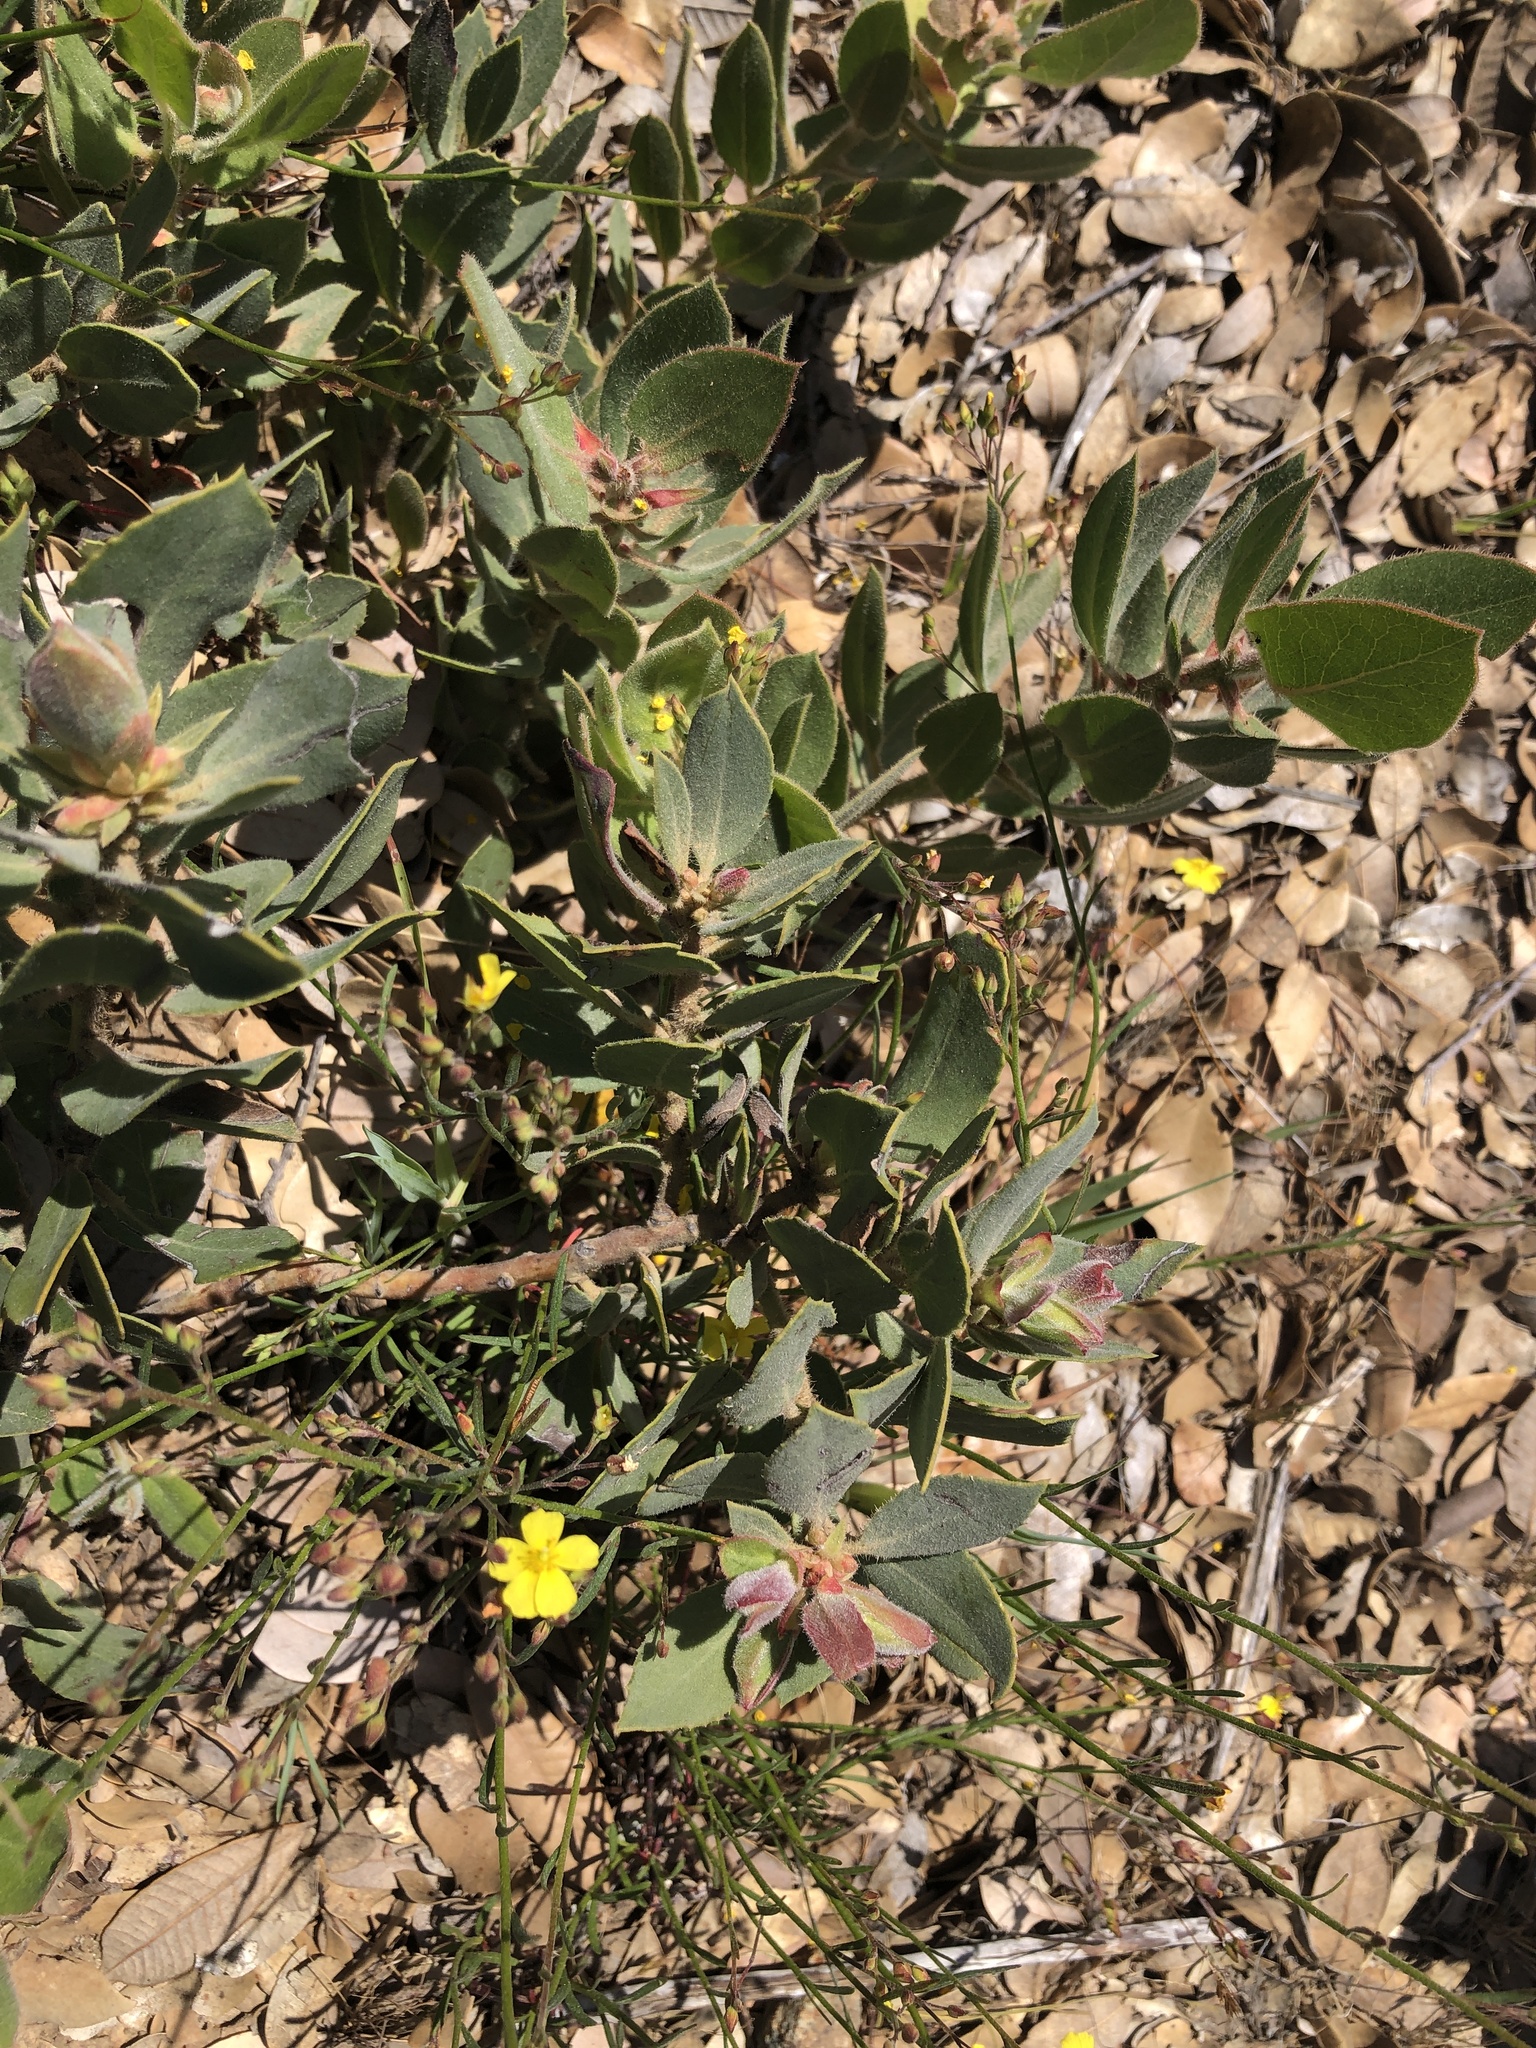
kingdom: Plantae
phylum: Tracheophyta
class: Magnoliopsida
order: Malvales
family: Cistaceae
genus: Crocanthemum
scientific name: Crocanthemum scoparium
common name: Broom-rose
